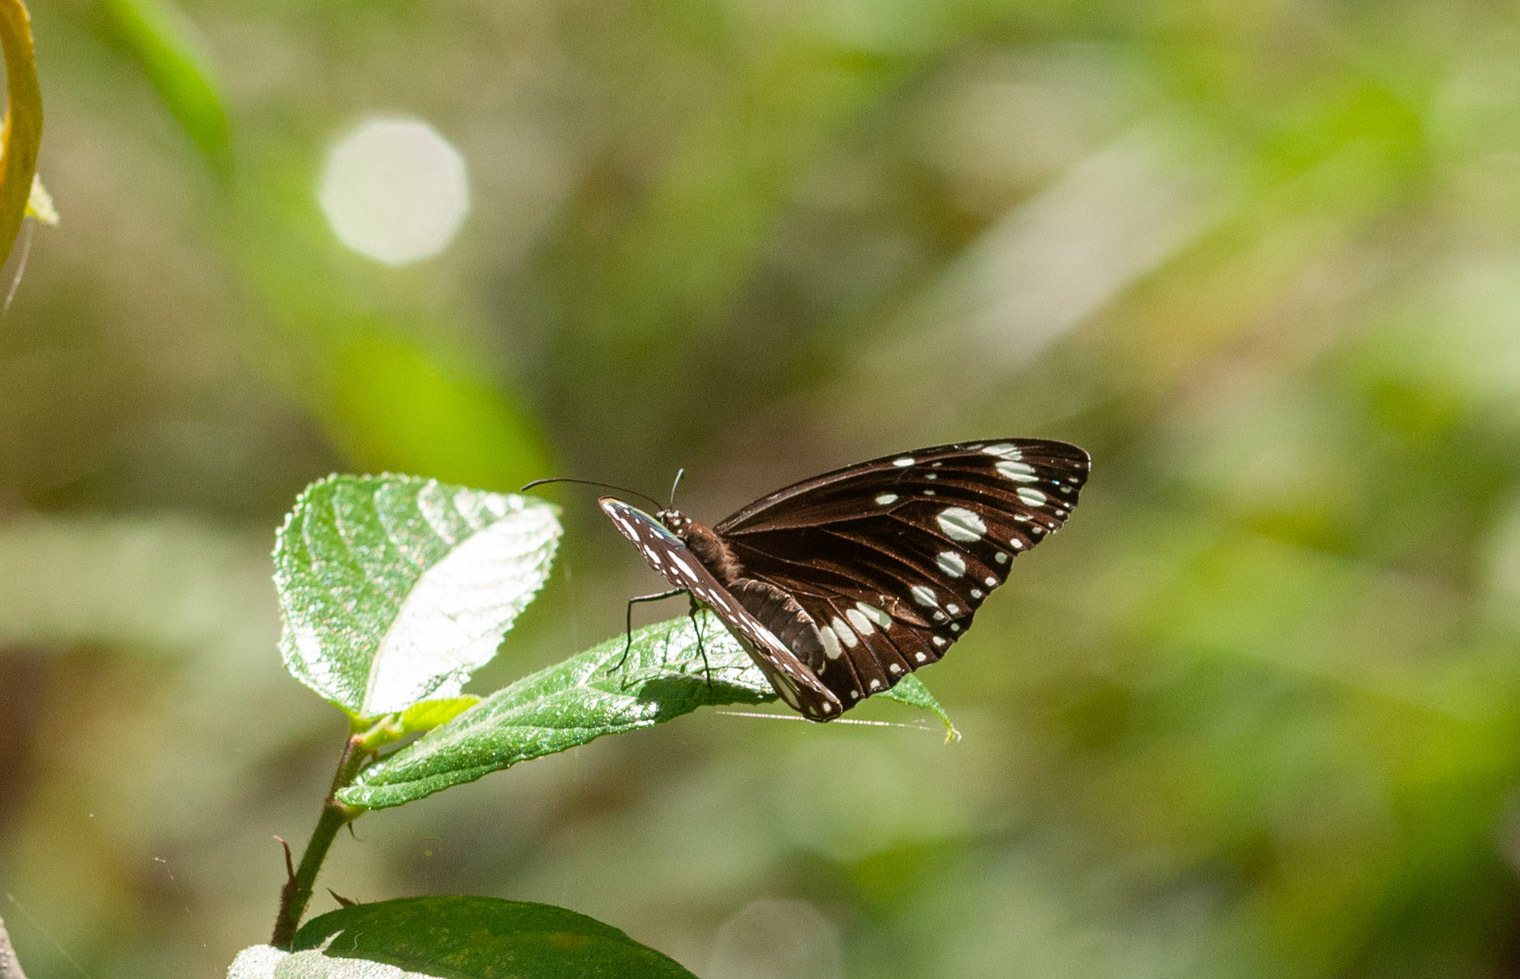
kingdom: Animalia
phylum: Arthropoda
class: Insecta
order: Lepidoptera
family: Nymphalidae
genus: Euploea
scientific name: Euploea core
